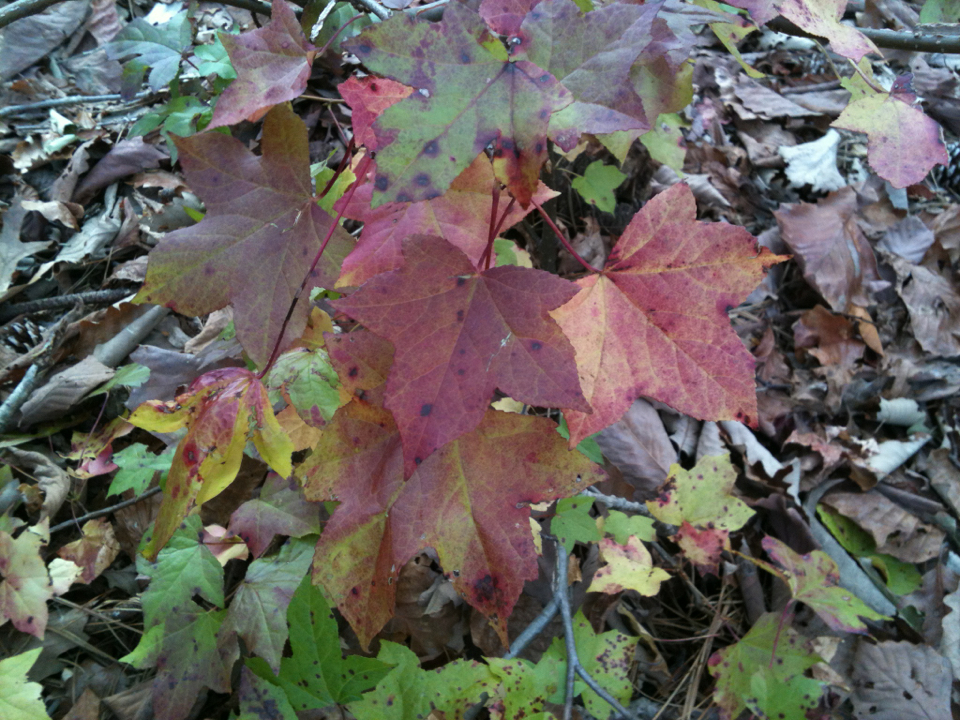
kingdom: Plantae
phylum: Tracheophyta
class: Magnoliopsida
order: Saxifragales
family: Altingiaceae
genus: Liquidambar
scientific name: Liquidambar styraciflua
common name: Sweet gum
